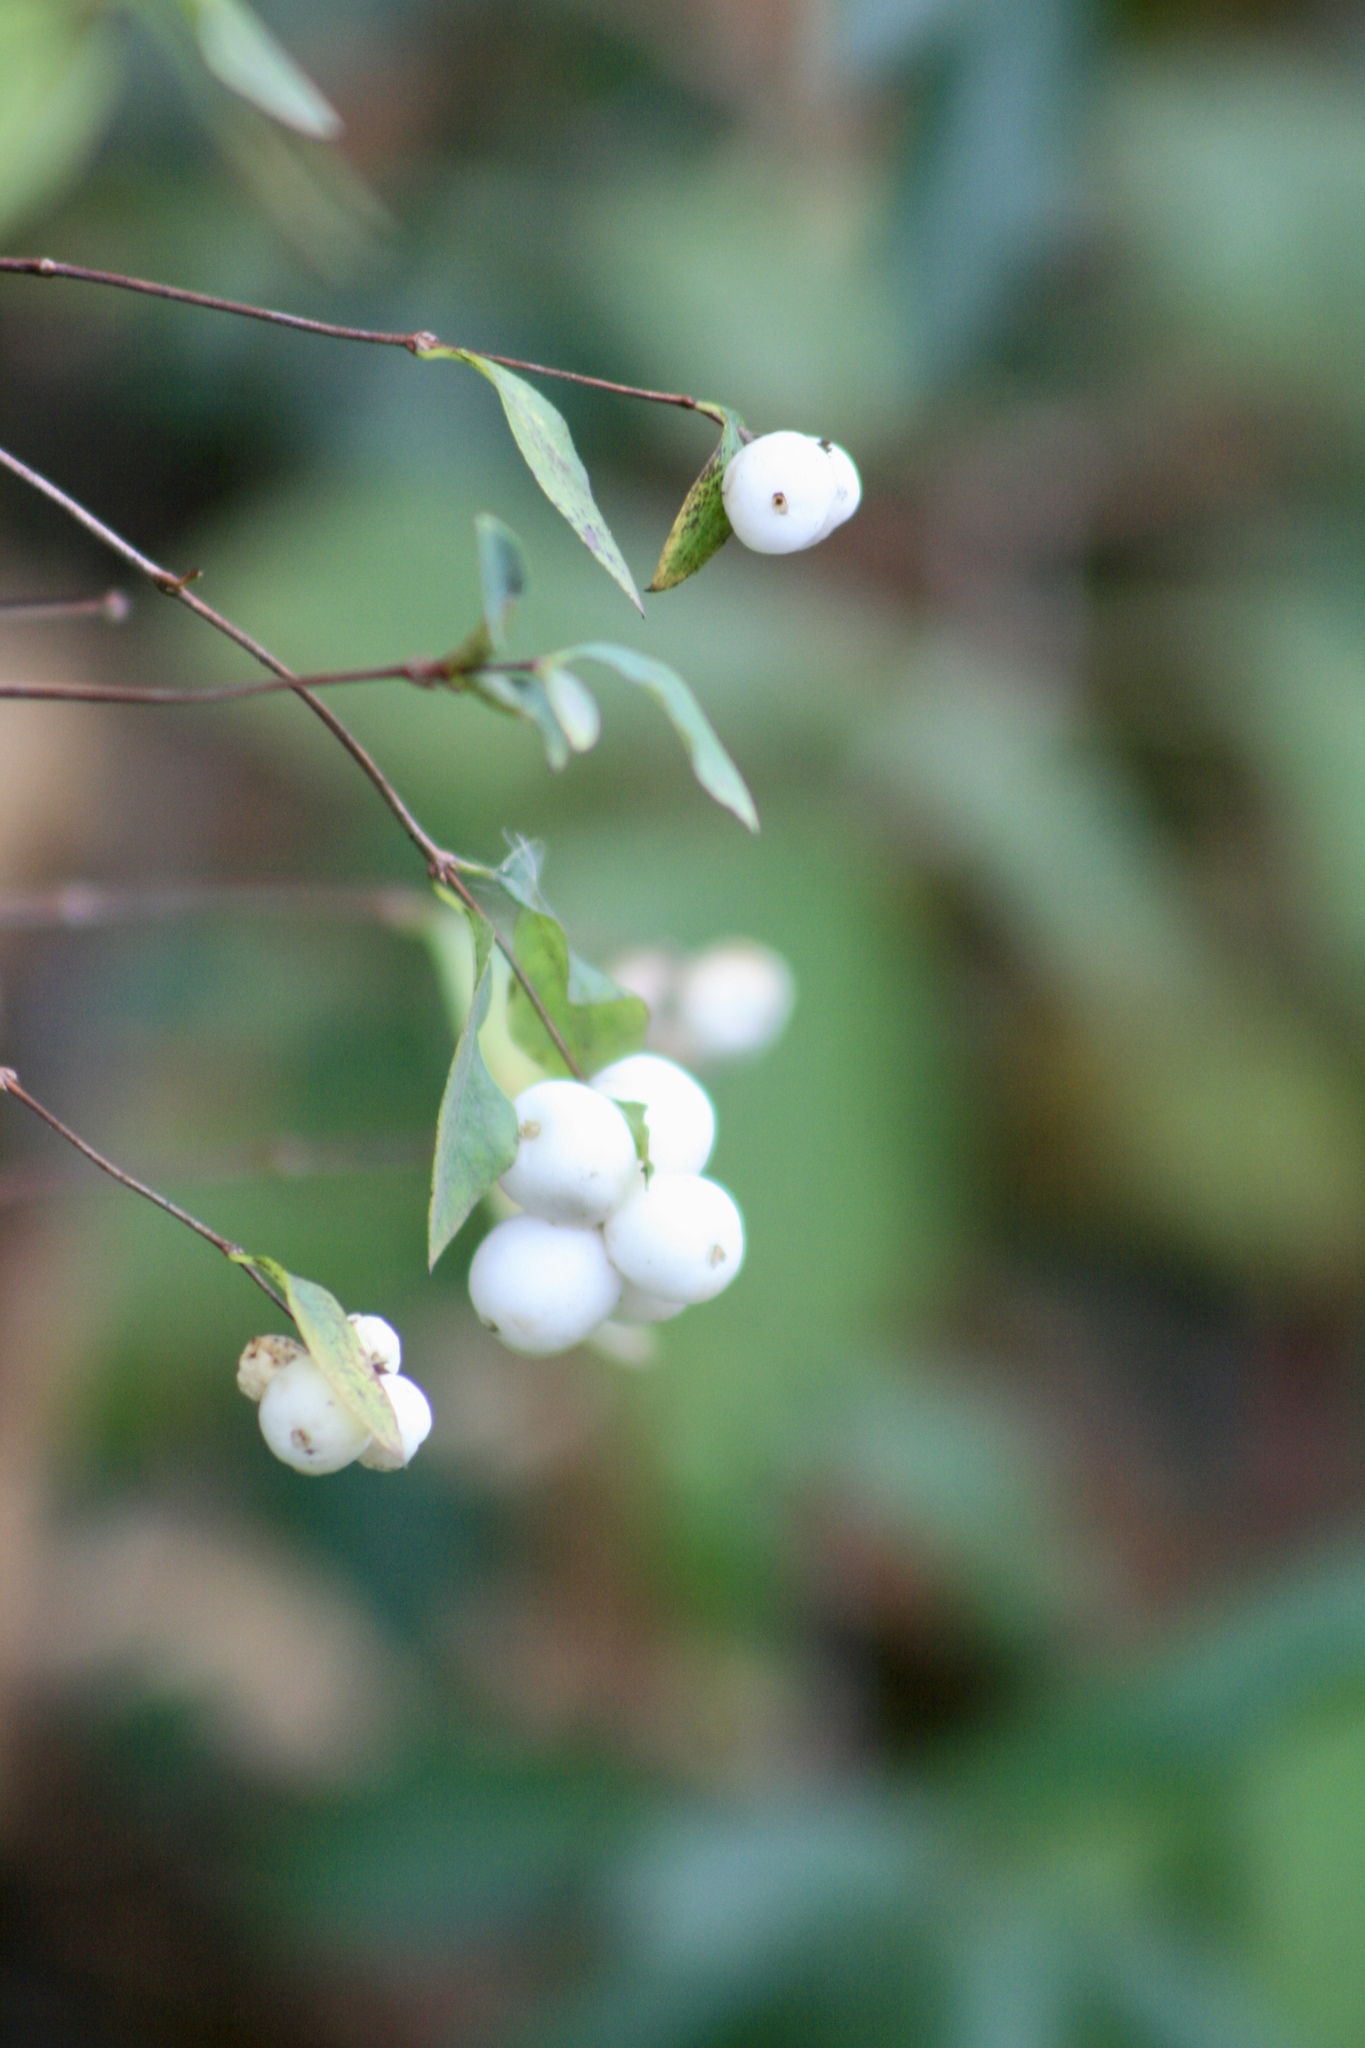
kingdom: Plantae
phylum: Tracheophyta
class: Magnoliopsida
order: Dipsacales
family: Caprifoliaceae
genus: Symphoricarpos
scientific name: Symphoricarpos albus
